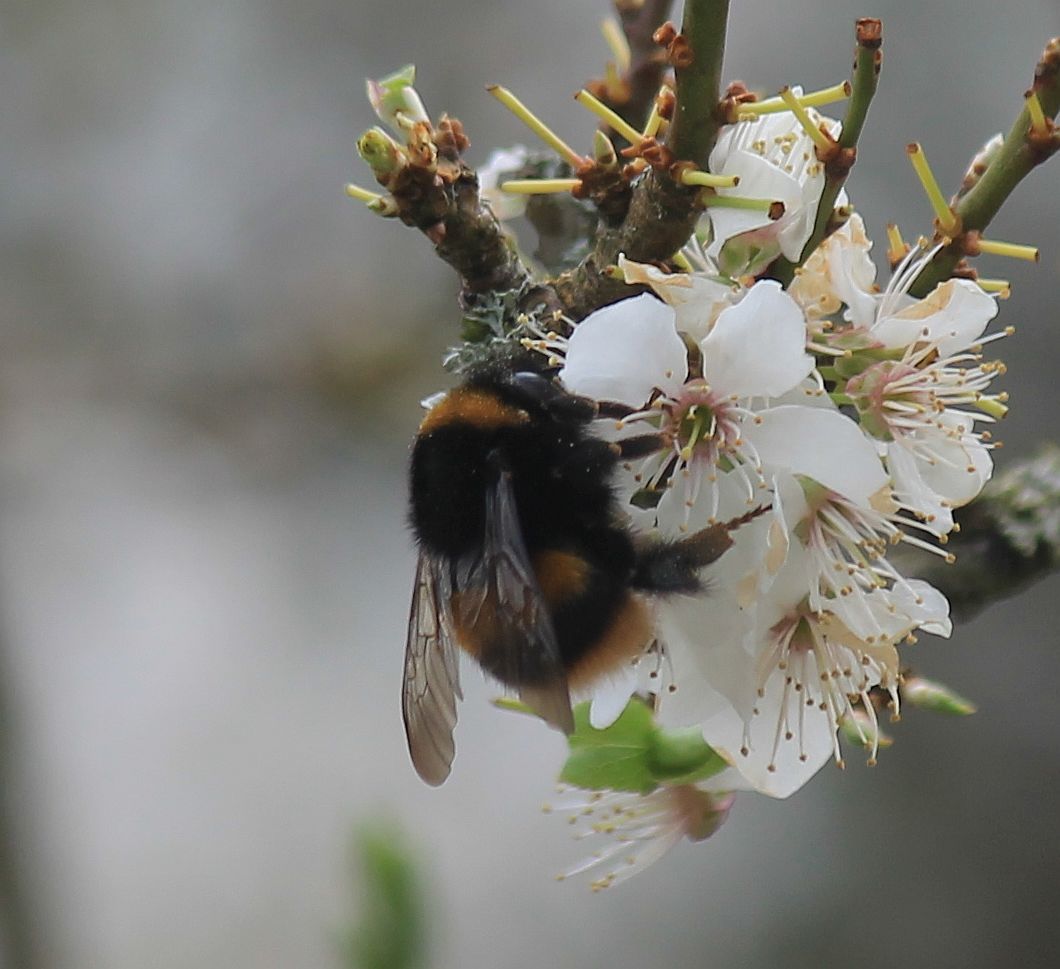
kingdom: Animalia
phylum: Arthropoda
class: Insecta
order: Hymenoptera
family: Apidae
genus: Bombus
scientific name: Bombus terrestris
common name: Buff-tailed bumblebee
